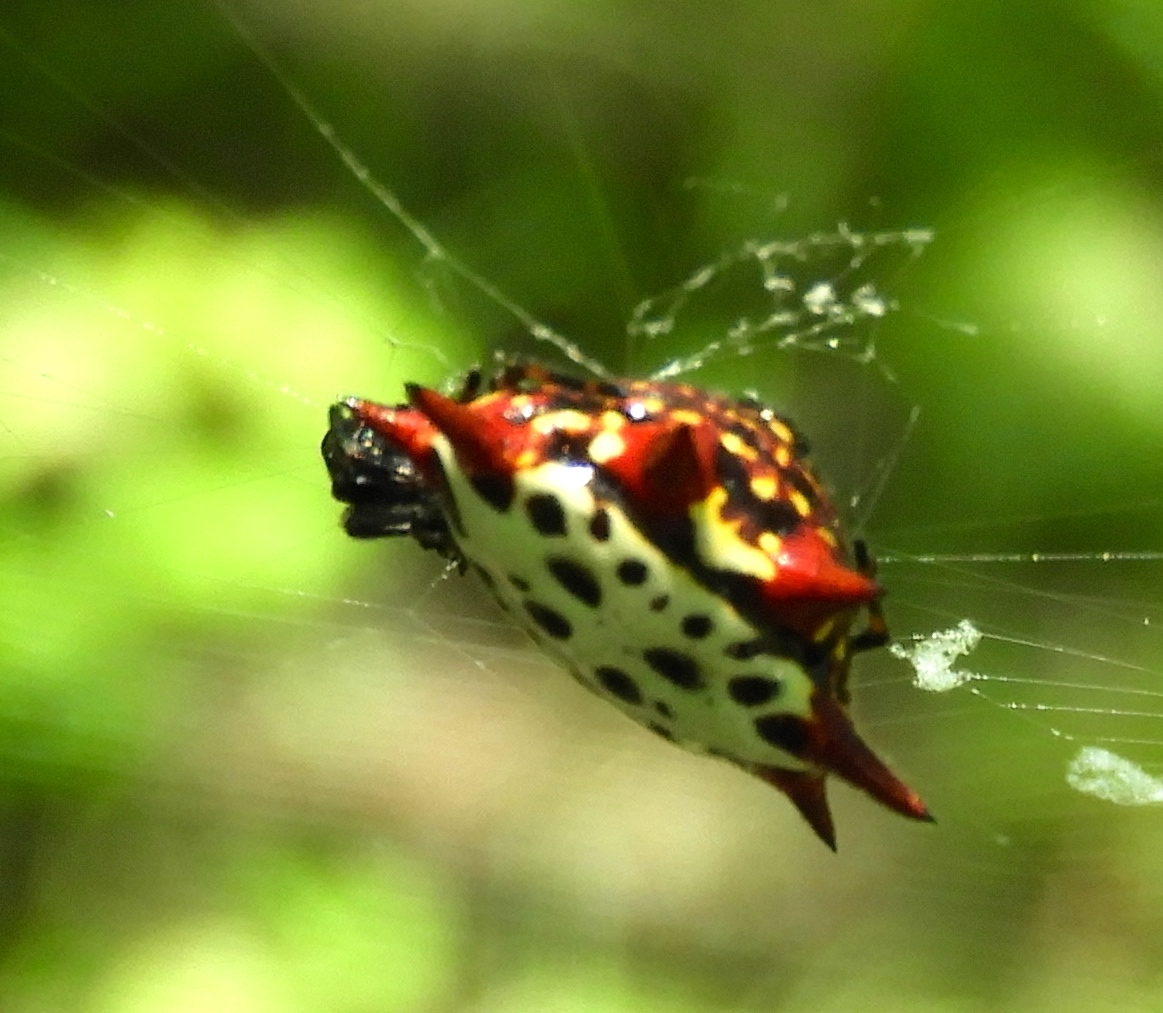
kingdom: Animalia
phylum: Arthropoda
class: Arachnida
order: Araneae
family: Araneidae
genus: Gasteracantha
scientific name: Gasteracantha cancriformis
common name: Orb weavers
